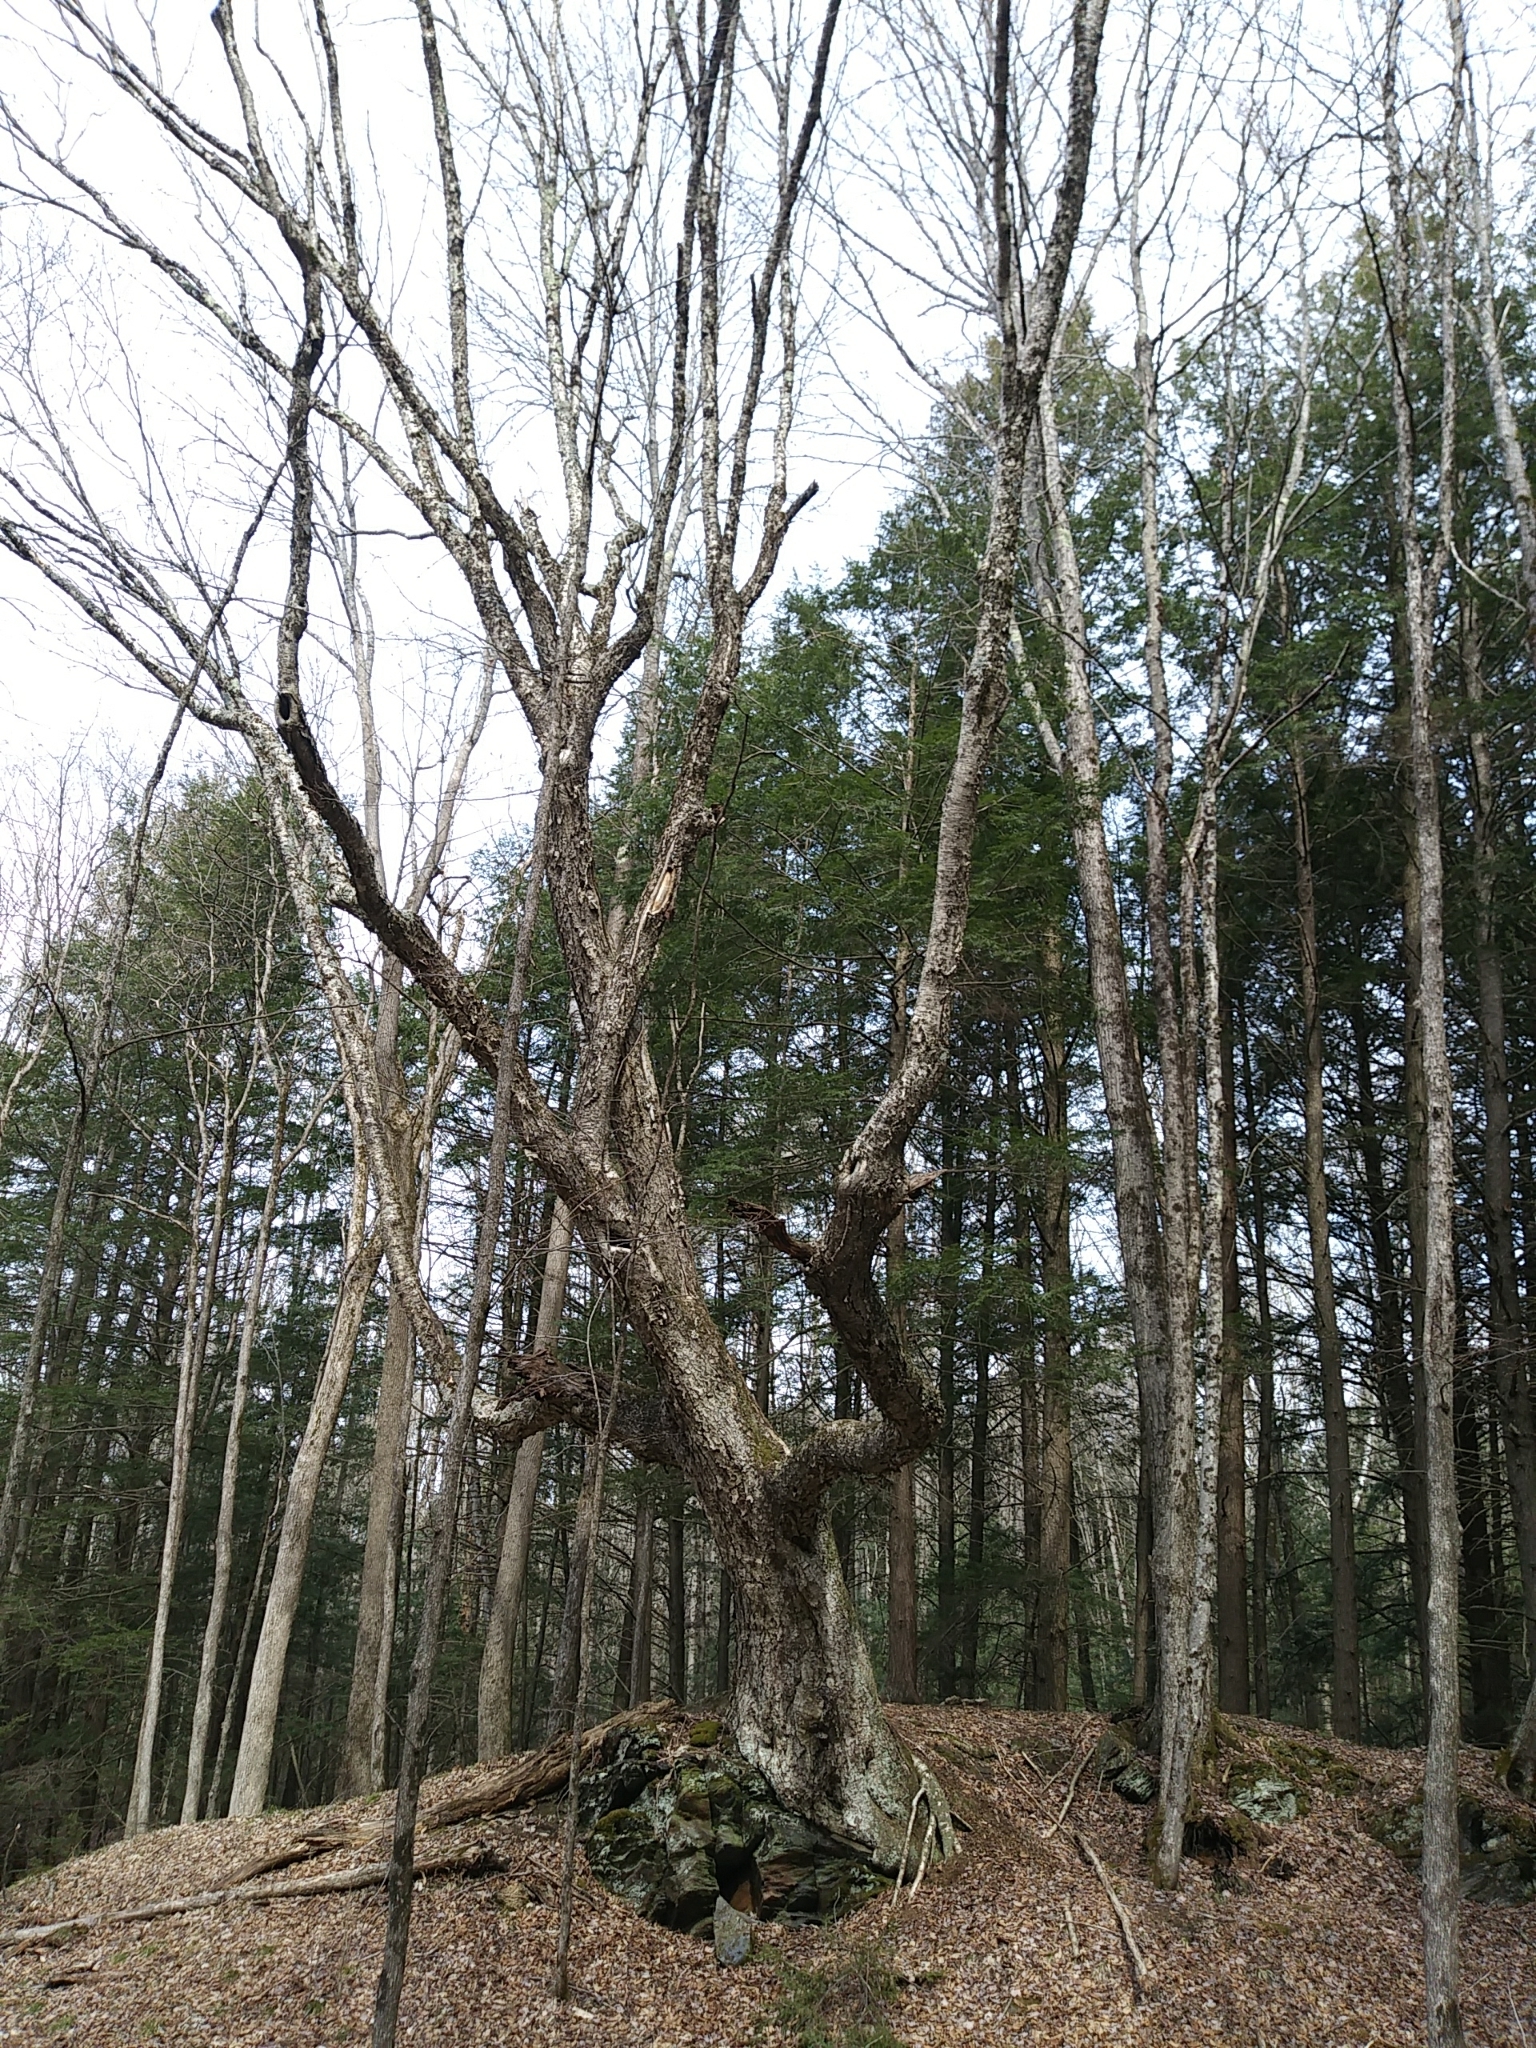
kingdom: Plantae
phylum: Tracheophyta
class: Magnoliopsida
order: Fagales
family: Betulaceae
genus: Betula
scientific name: Betula alleghaniensis
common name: Yellow birch
